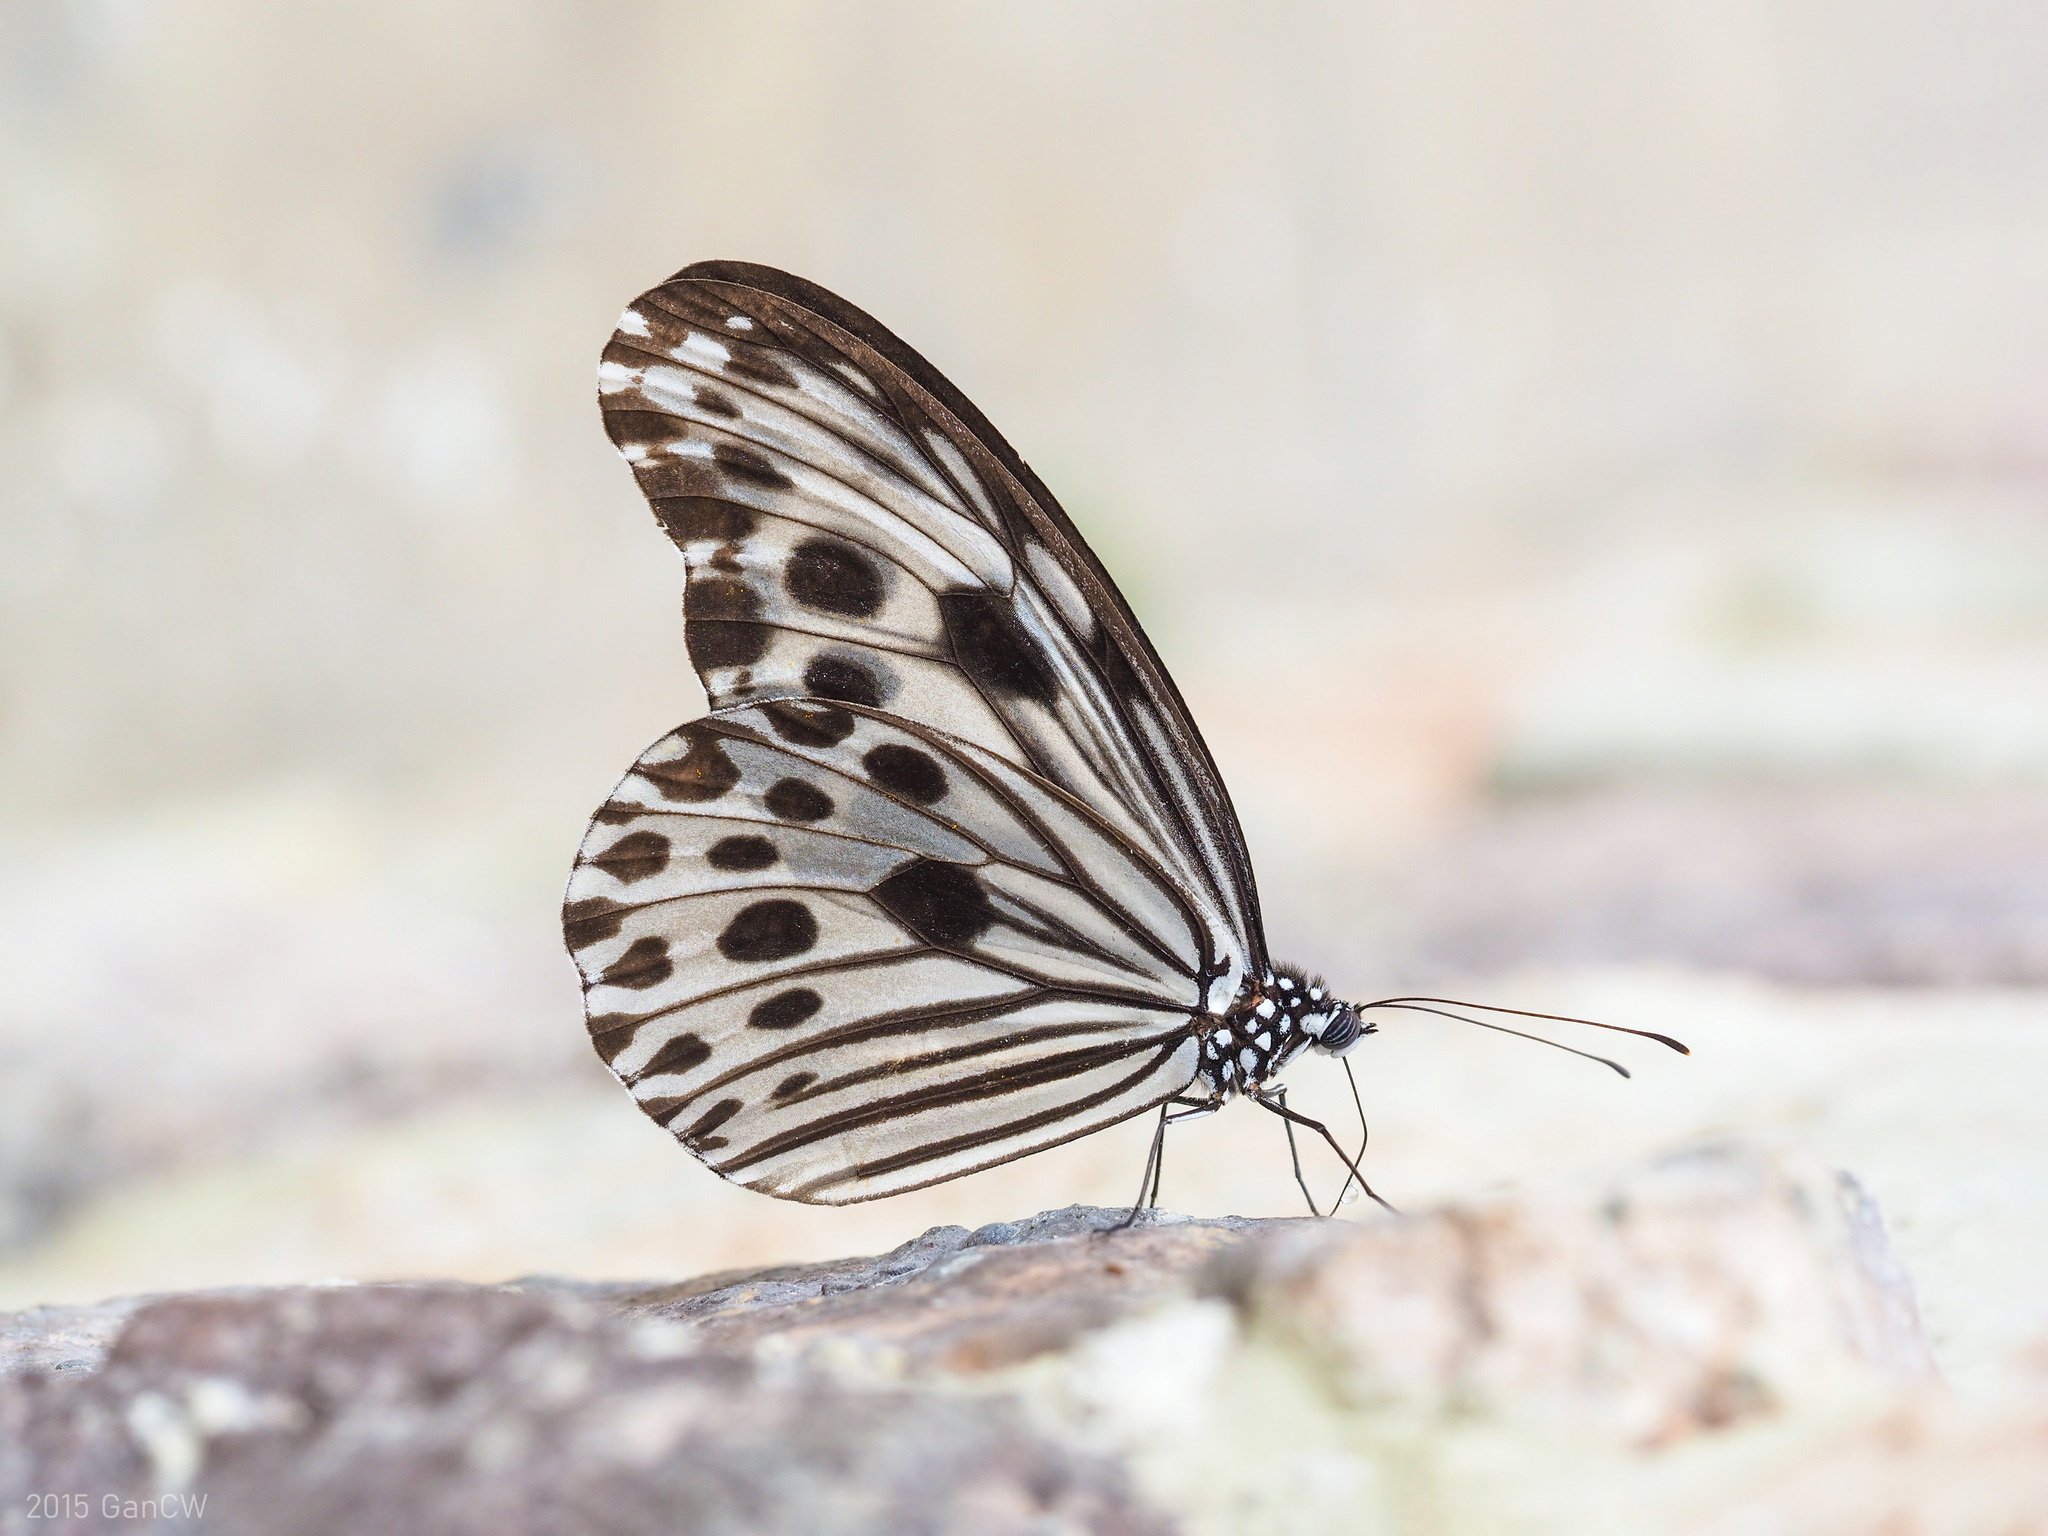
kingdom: Animalia
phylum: Arthropoda
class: Insecta
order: Lepidoptera
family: Nymphalidae
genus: Ideopsis
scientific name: Ideopsis gaura
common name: Smaller wood nymph
